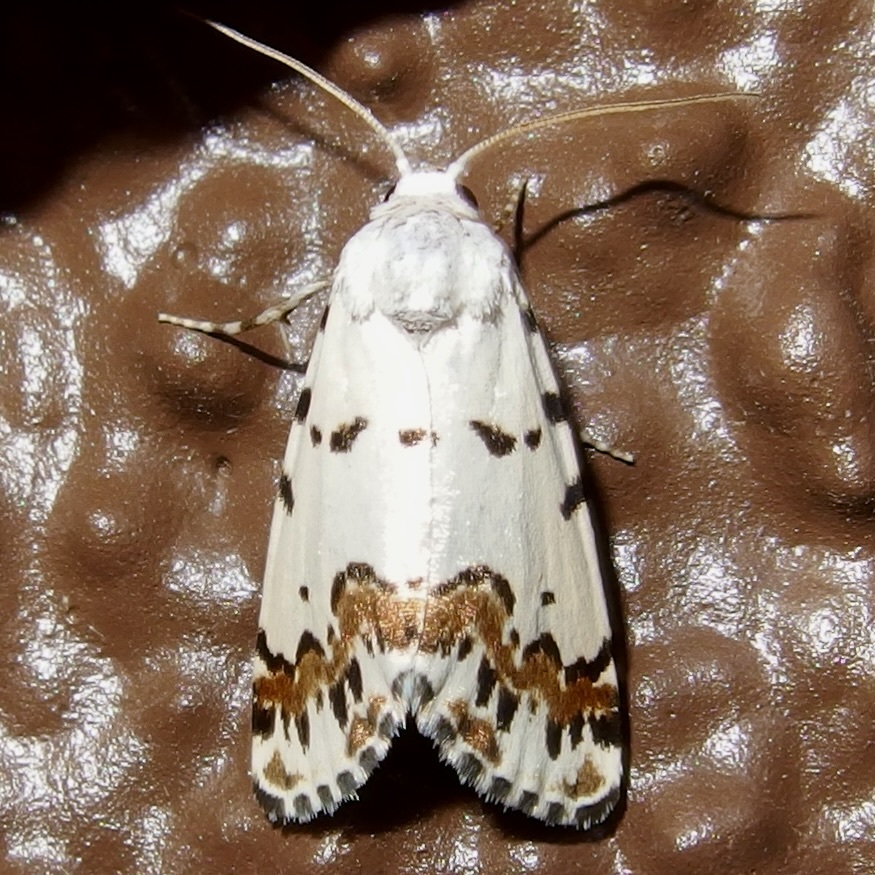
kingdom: Animalia
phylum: Arthropoda
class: Insecta
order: Lepidoptera
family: Noctuidae
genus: Grotella
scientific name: Grotella tricolor
